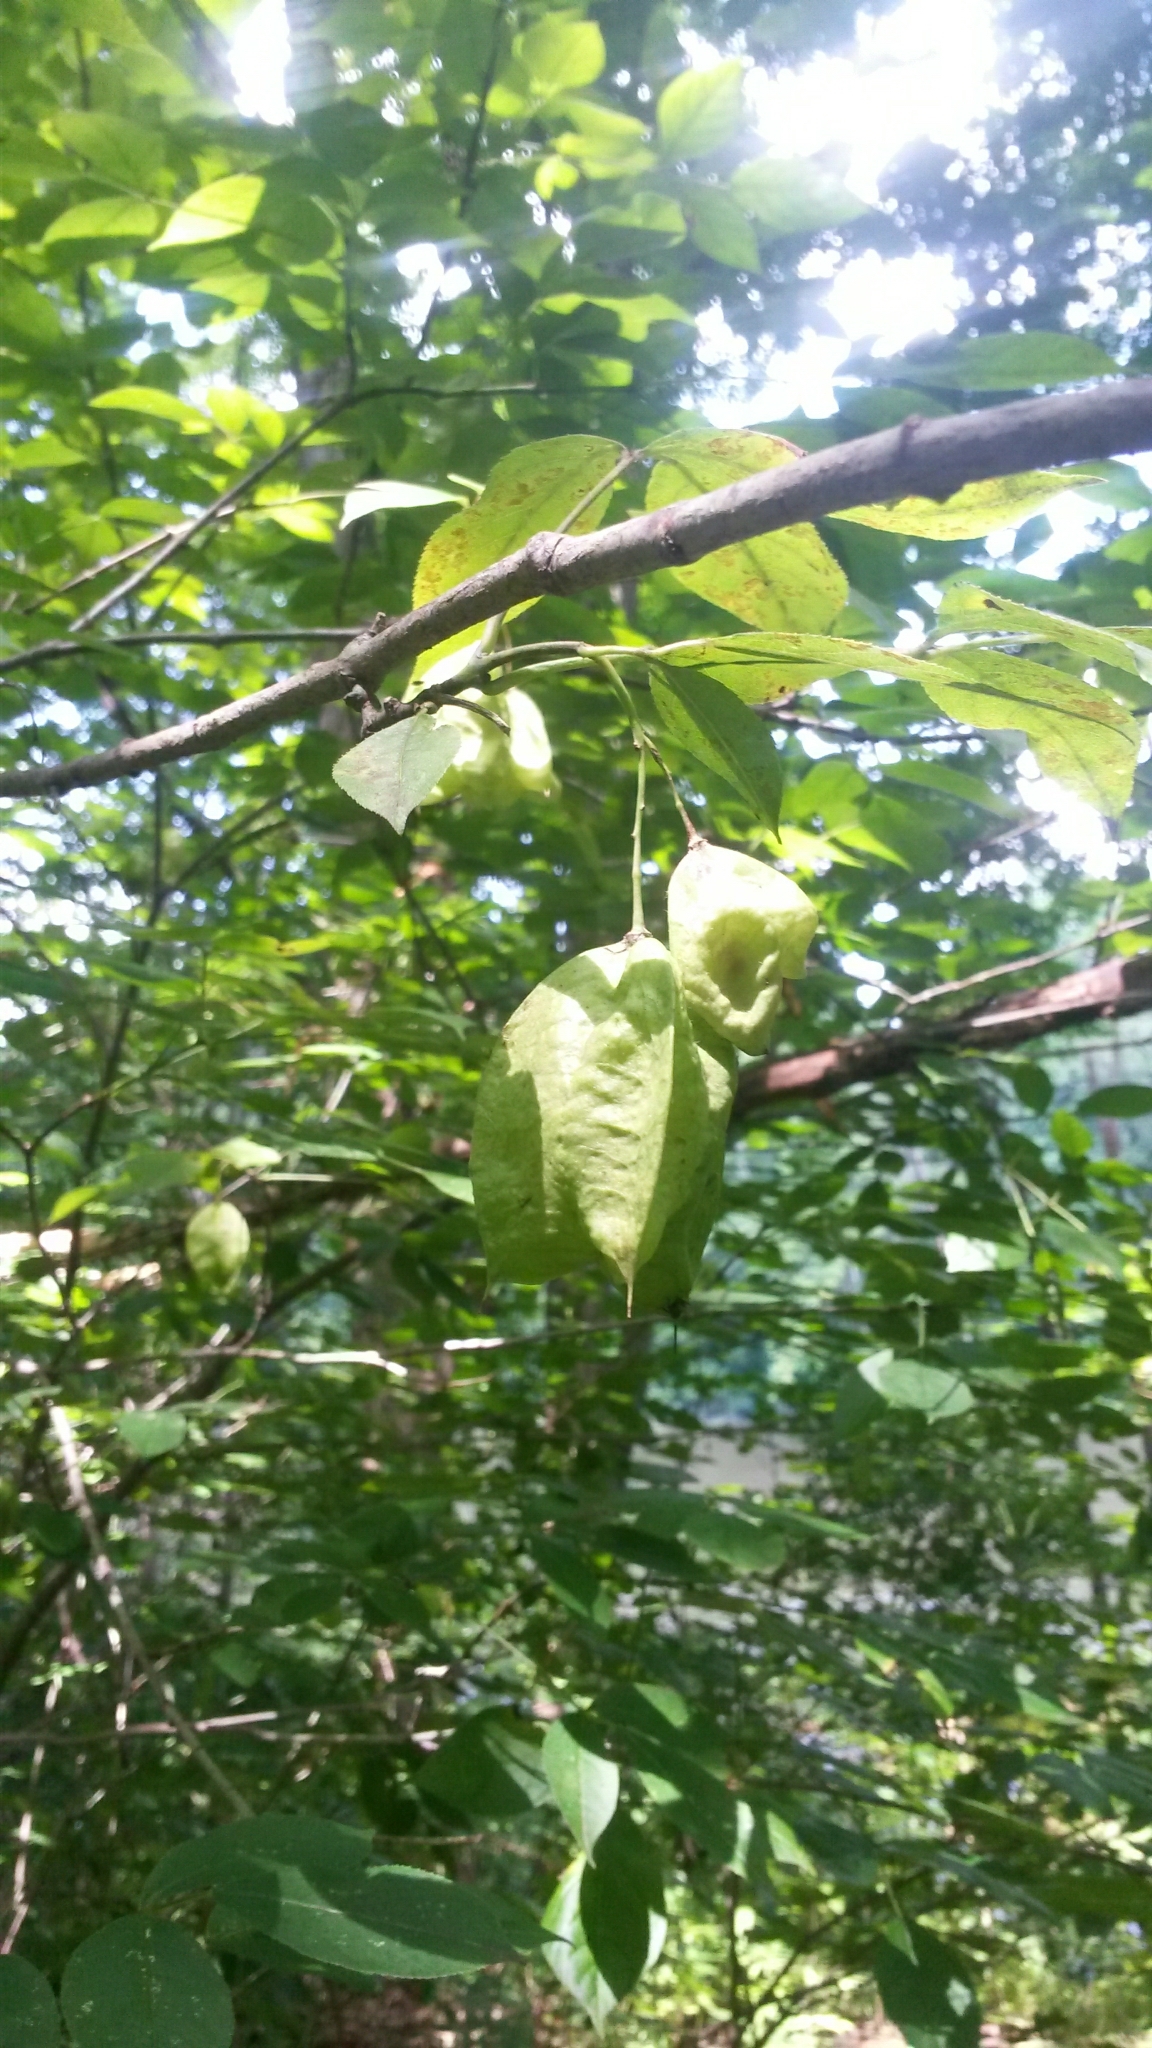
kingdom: Plantae
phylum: Tracheophyta
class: Magnoliopsida
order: Crossosomatales
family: Staphyleaceae
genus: Staphylea
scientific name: Staphylea trifolia
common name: American bladdernut
